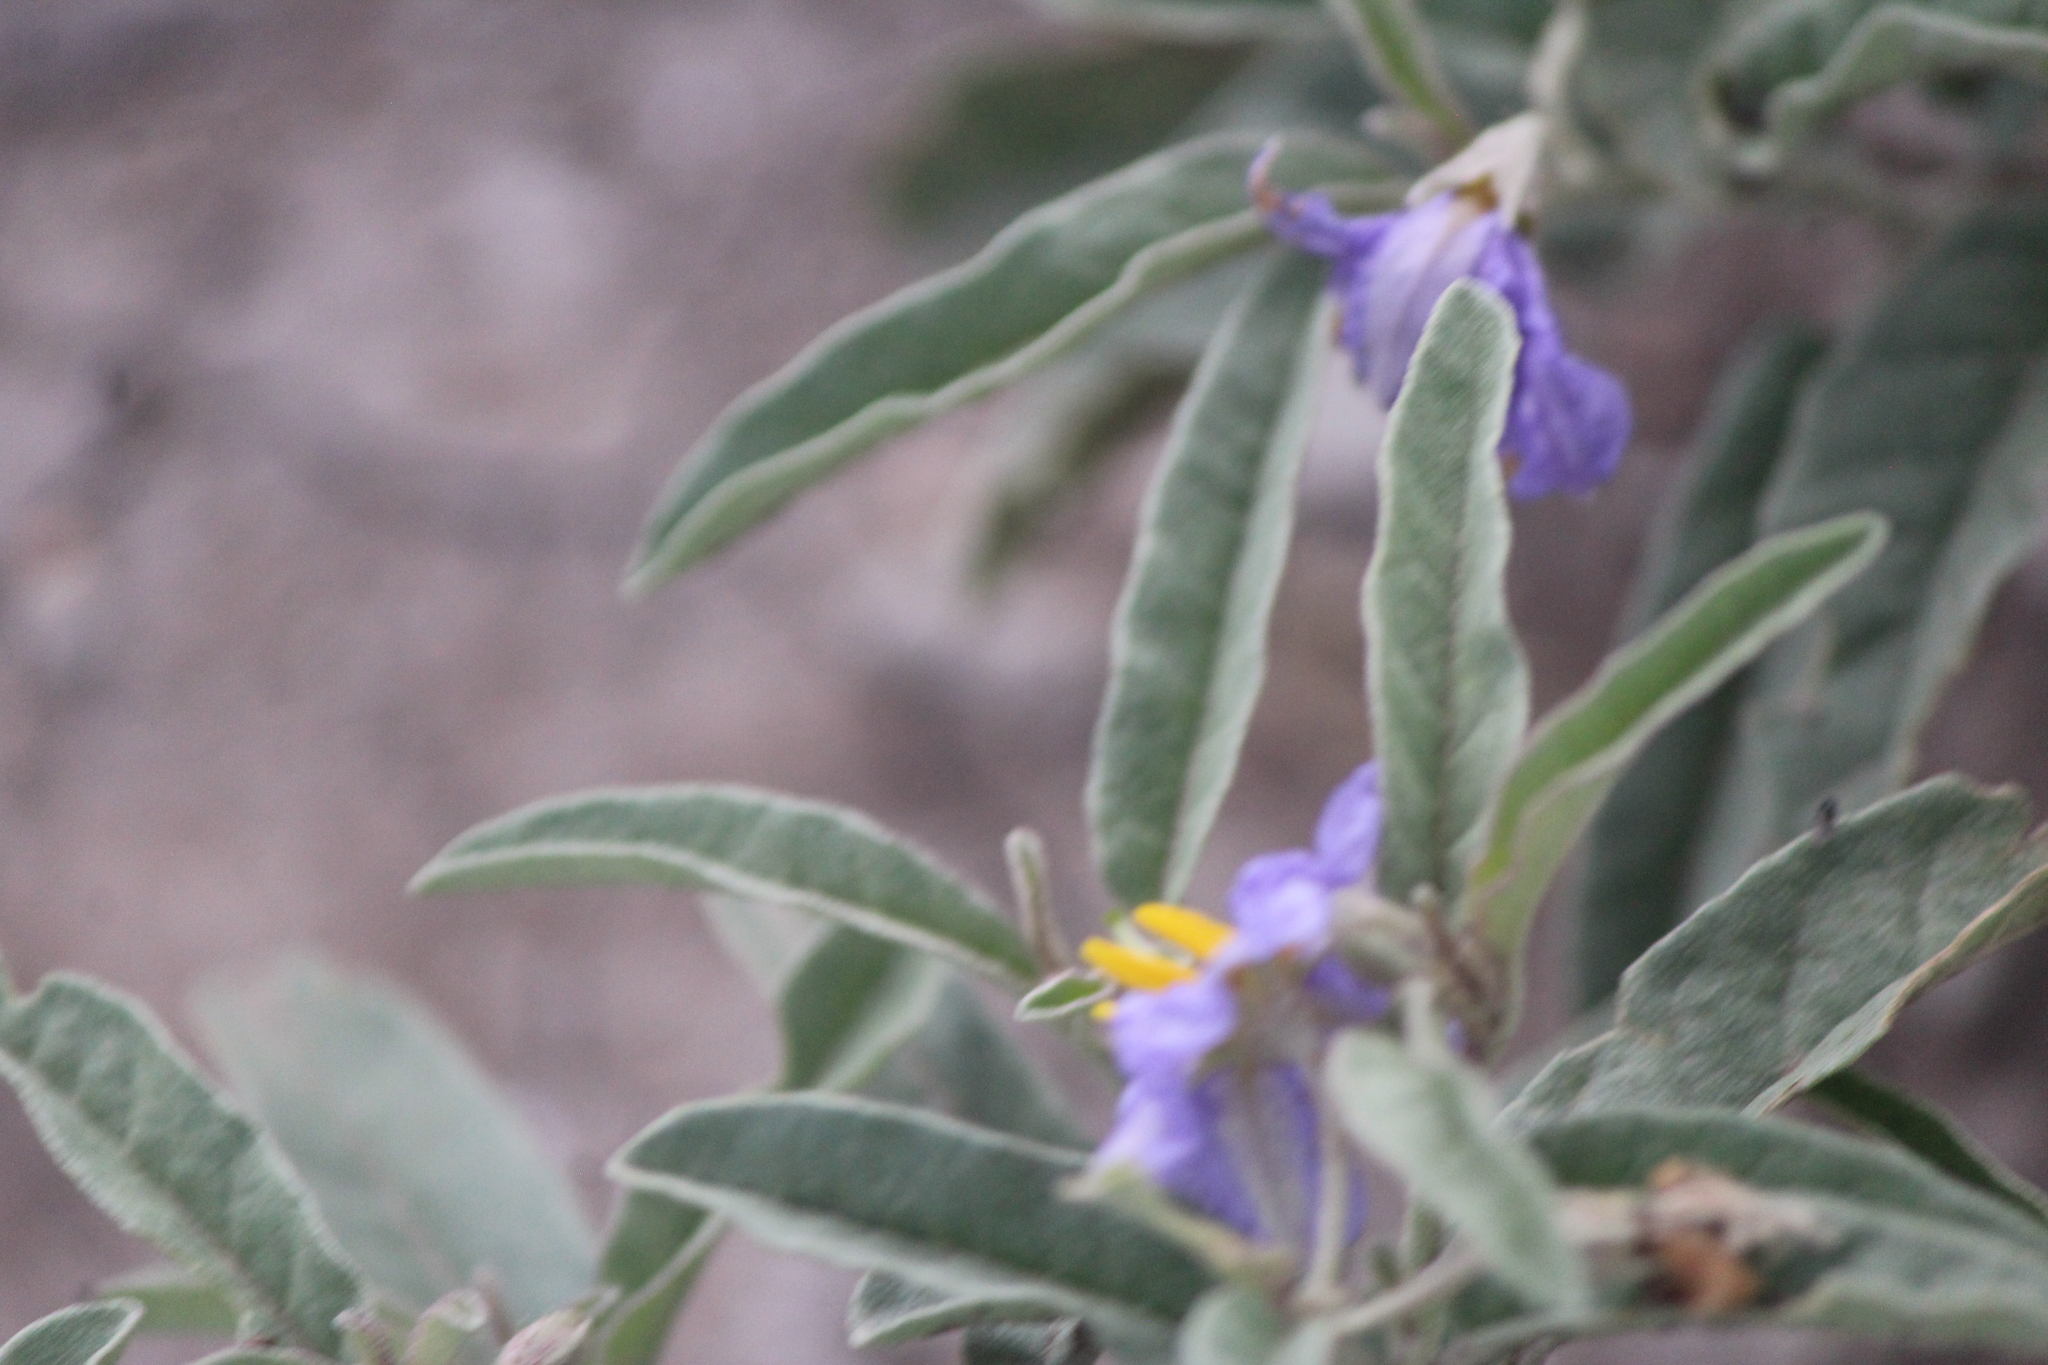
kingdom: Plantae
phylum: Tracheophyta
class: Magnoliopsida
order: Solanales
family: Solanaceae
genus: Solanum
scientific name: Solanum elaeagnifolium
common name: Silverleaf nightshade
